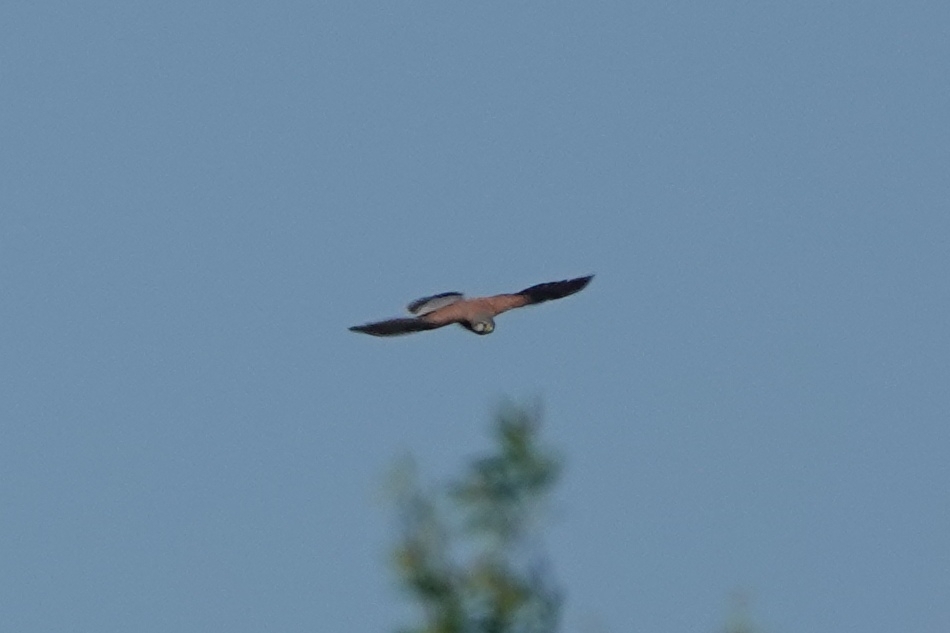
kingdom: Animalia
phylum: Chordata
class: Aves
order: Falconiformes
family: Falconidae
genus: Falco
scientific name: Falco tinnunculus
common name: Common kestrel
